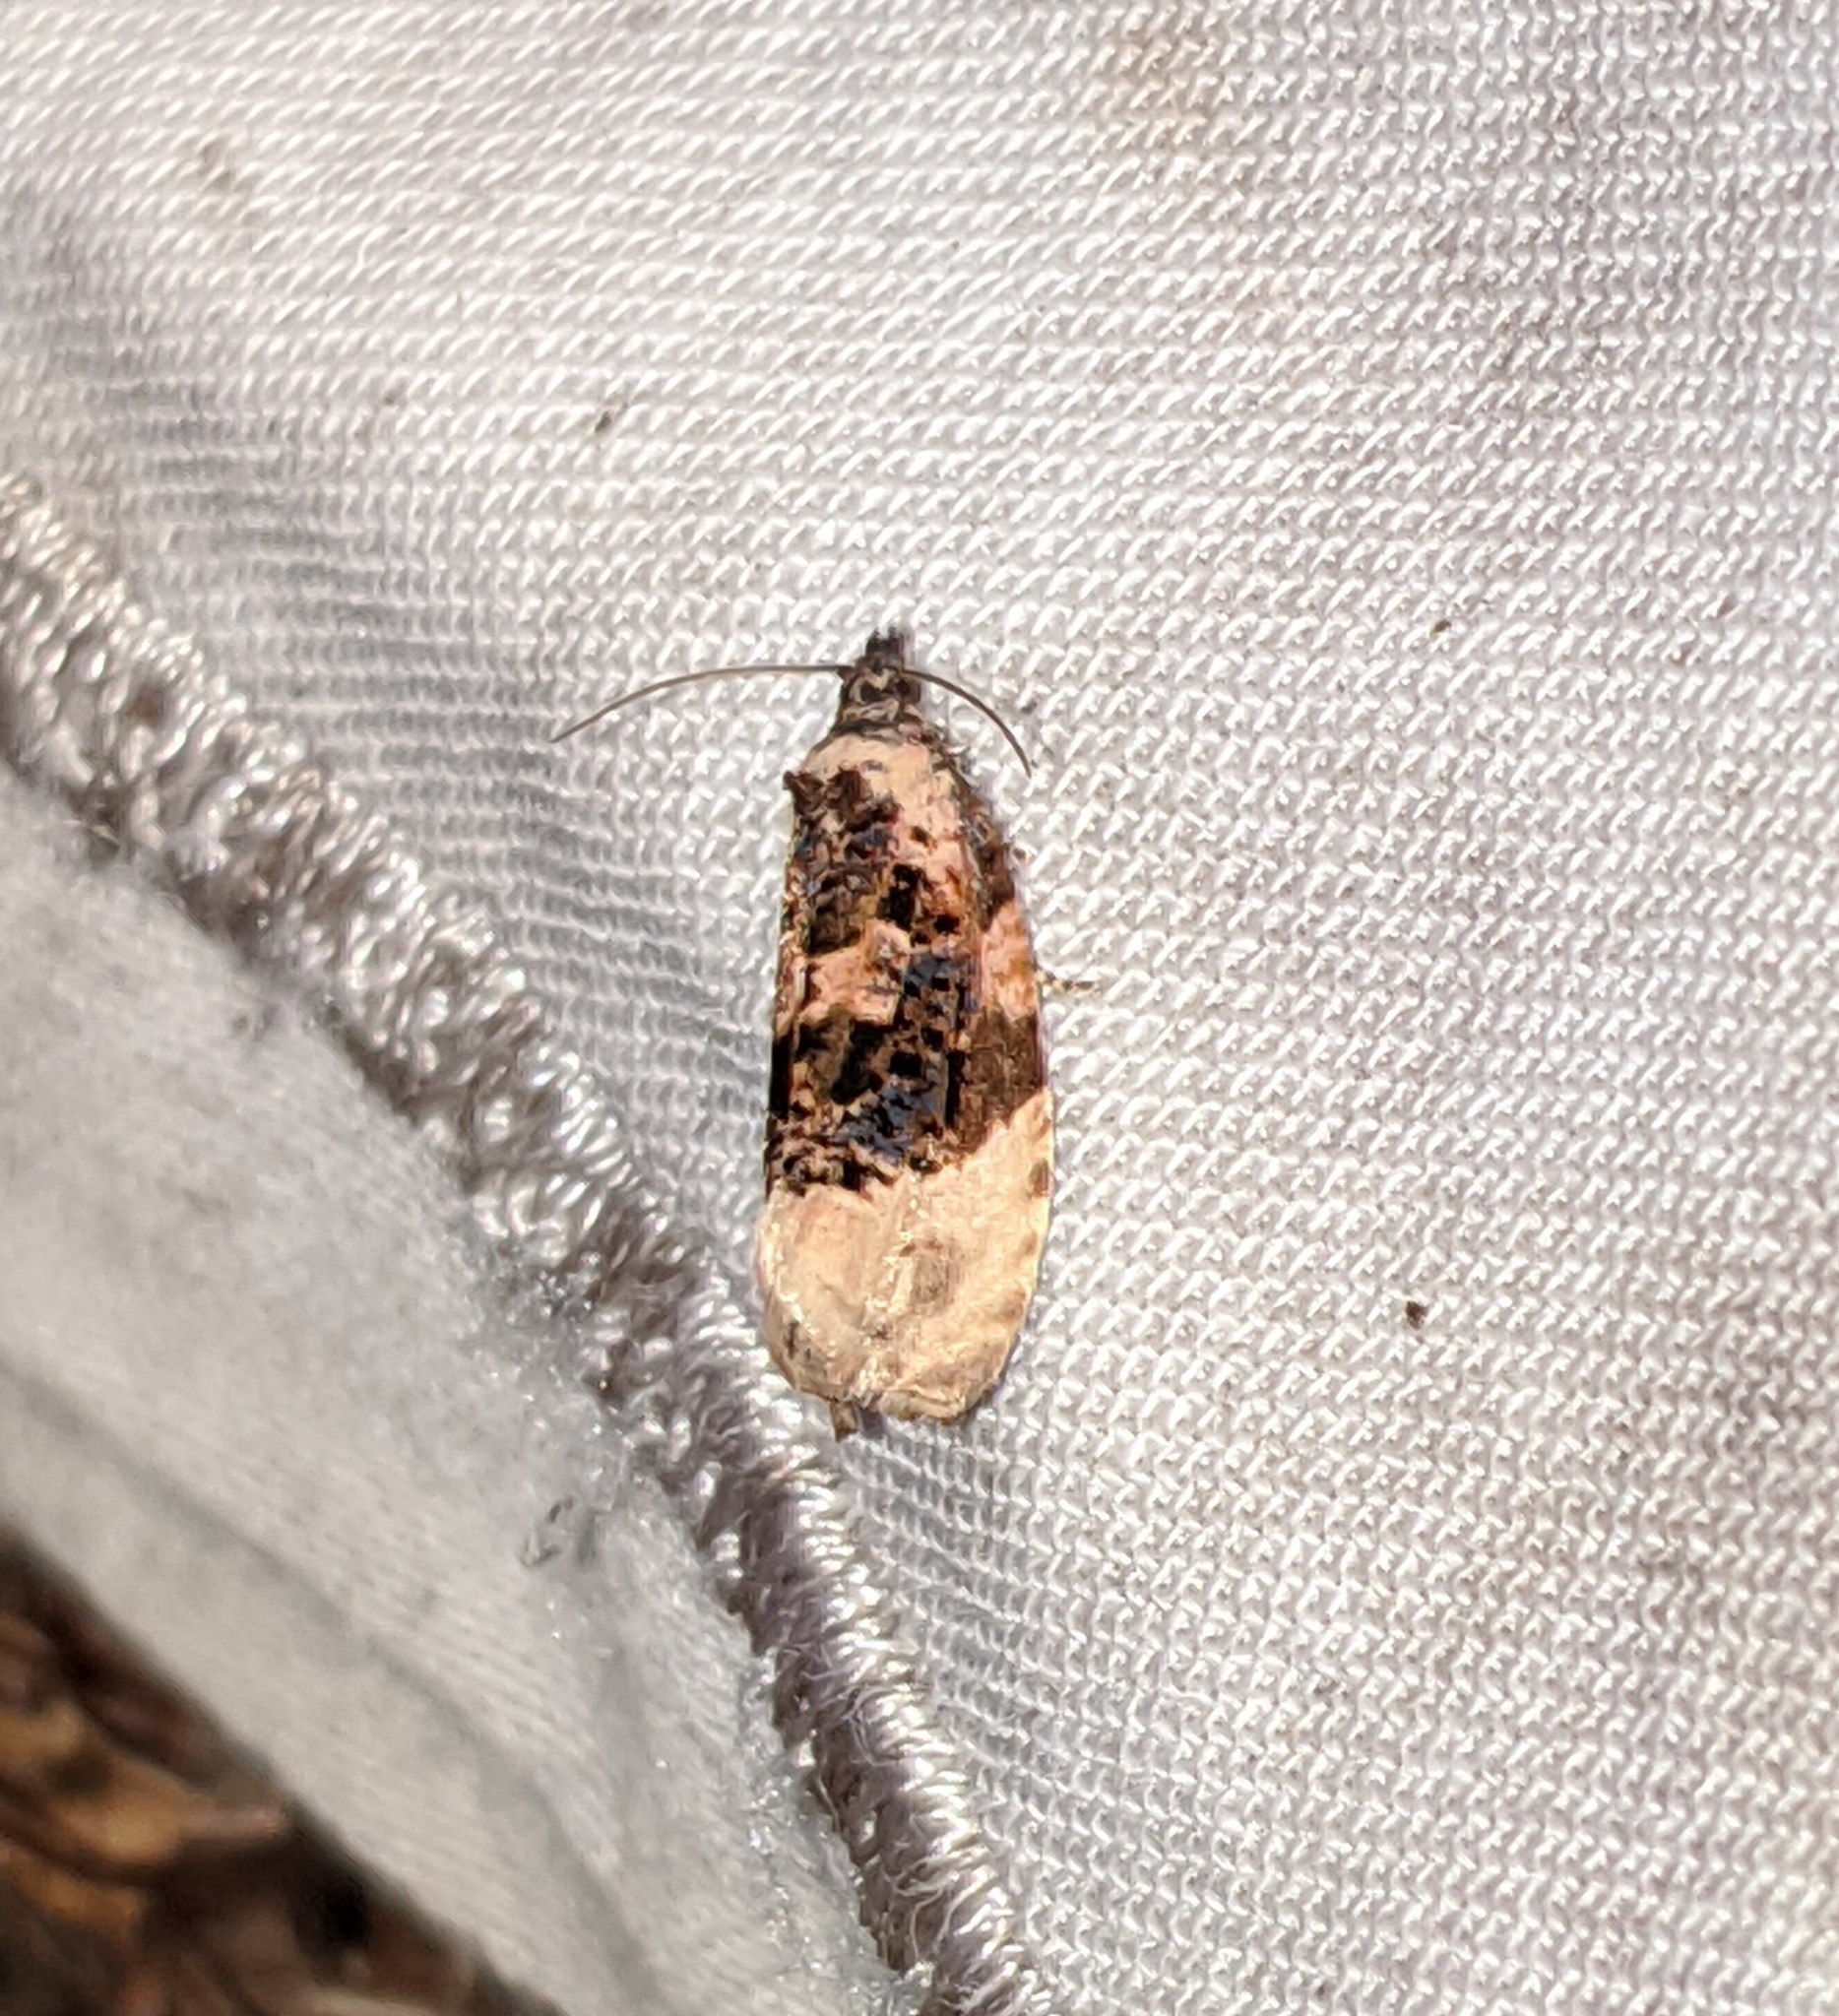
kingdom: Animalia
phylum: Arthropoda
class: Insecta
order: Lepidoptera
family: Tortricidae
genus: Hedya
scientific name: Hedya ochroleucana
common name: Buff-tipped marble
